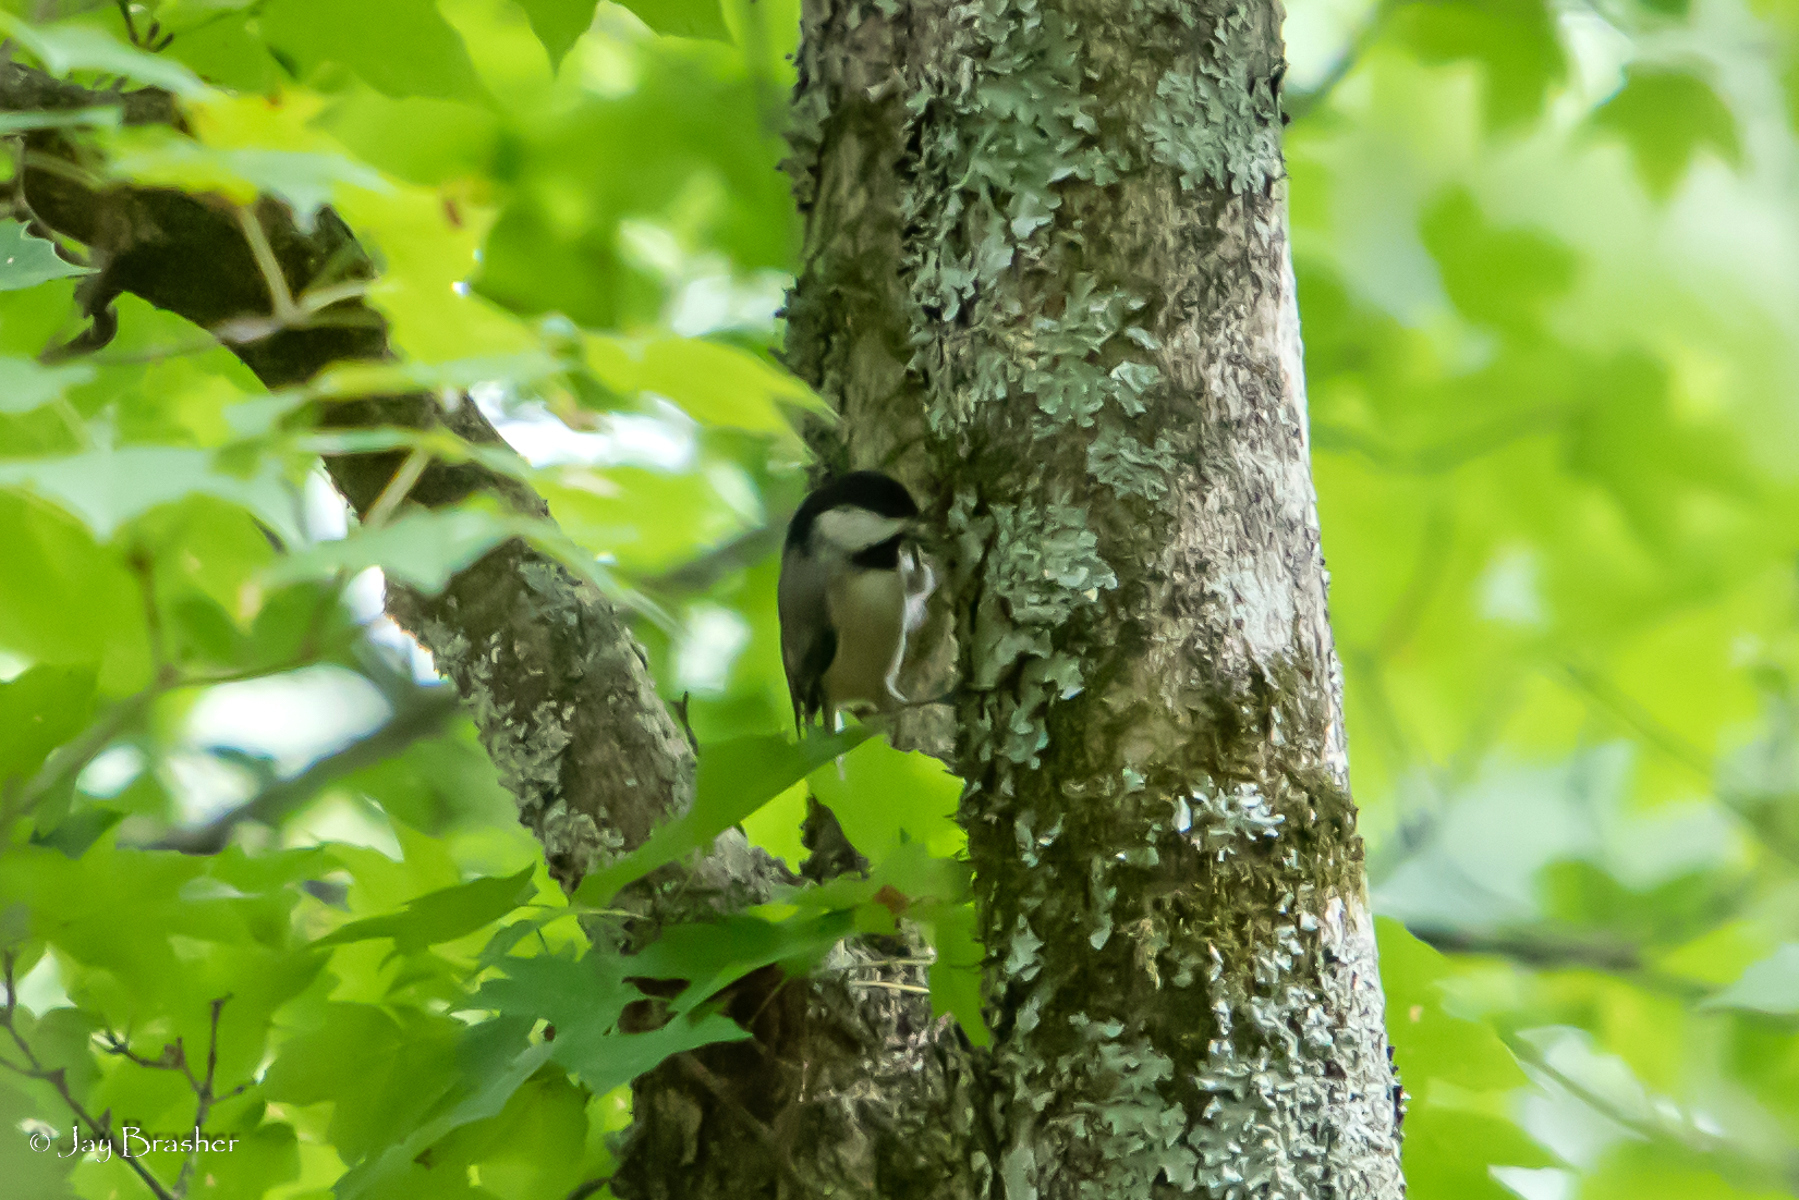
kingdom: Animalia
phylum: Chordata
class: Aves
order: Passeriformes
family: Paridae
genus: Poecile
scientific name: Poecile carolinensis
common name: Carolina chickadee
